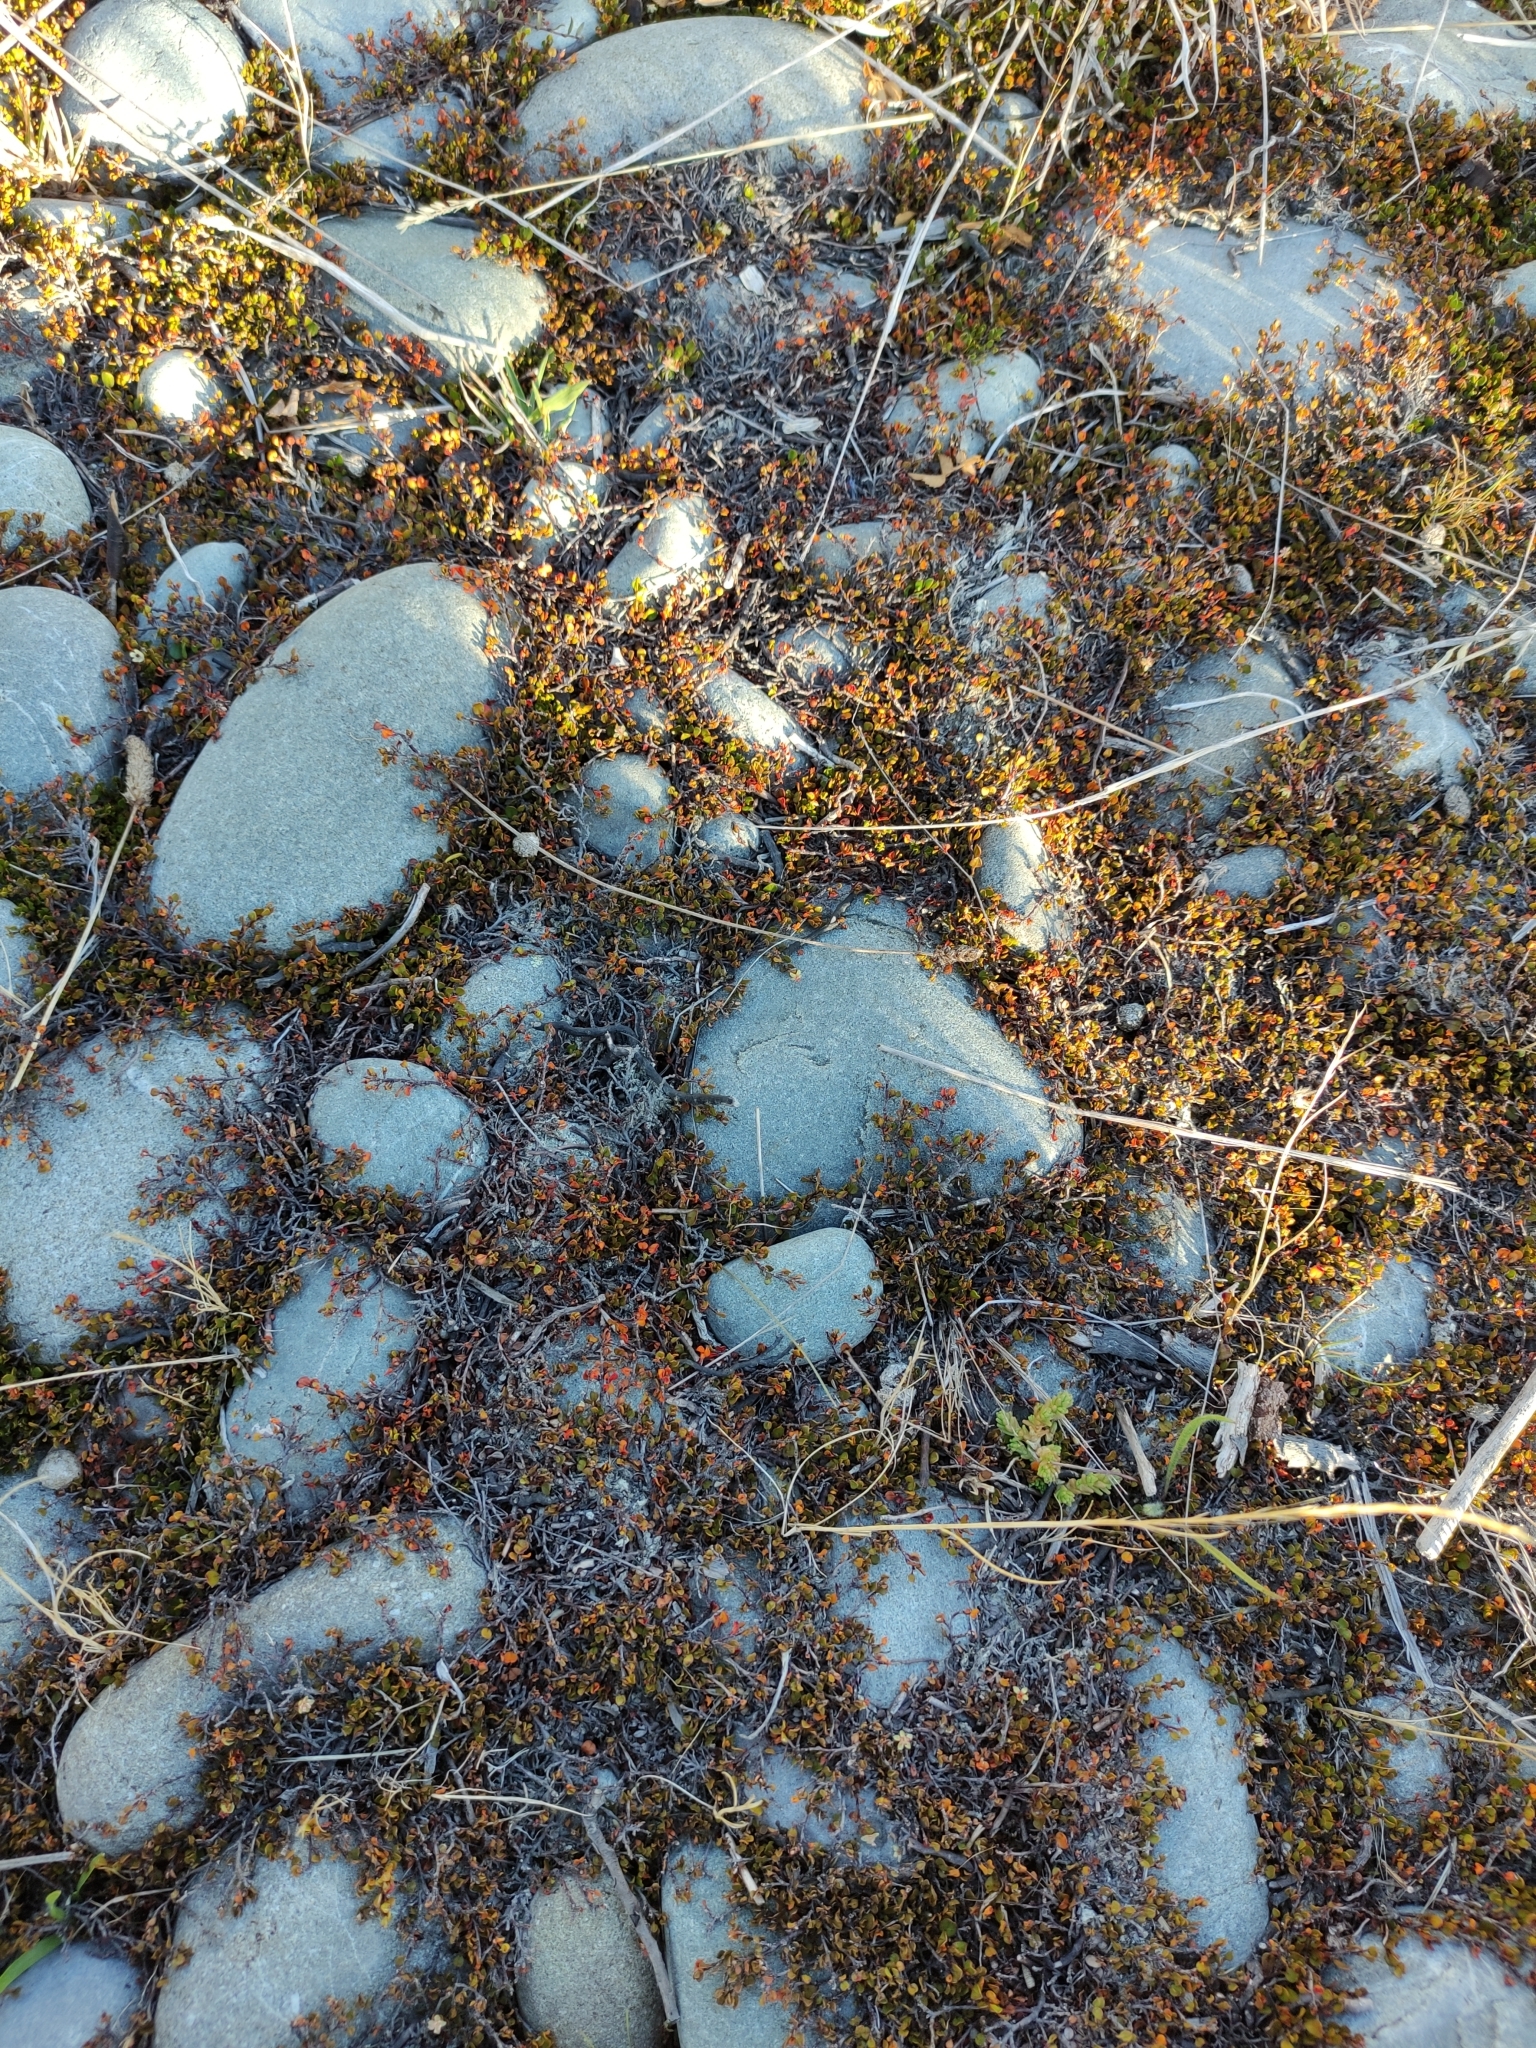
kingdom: Plantae
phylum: Tracheophyta
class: Magnoliopsida
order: Caryophyllales
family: Polygonaceae
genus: Muehlenbeckia
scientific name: Muehlenbeckia axillaris
